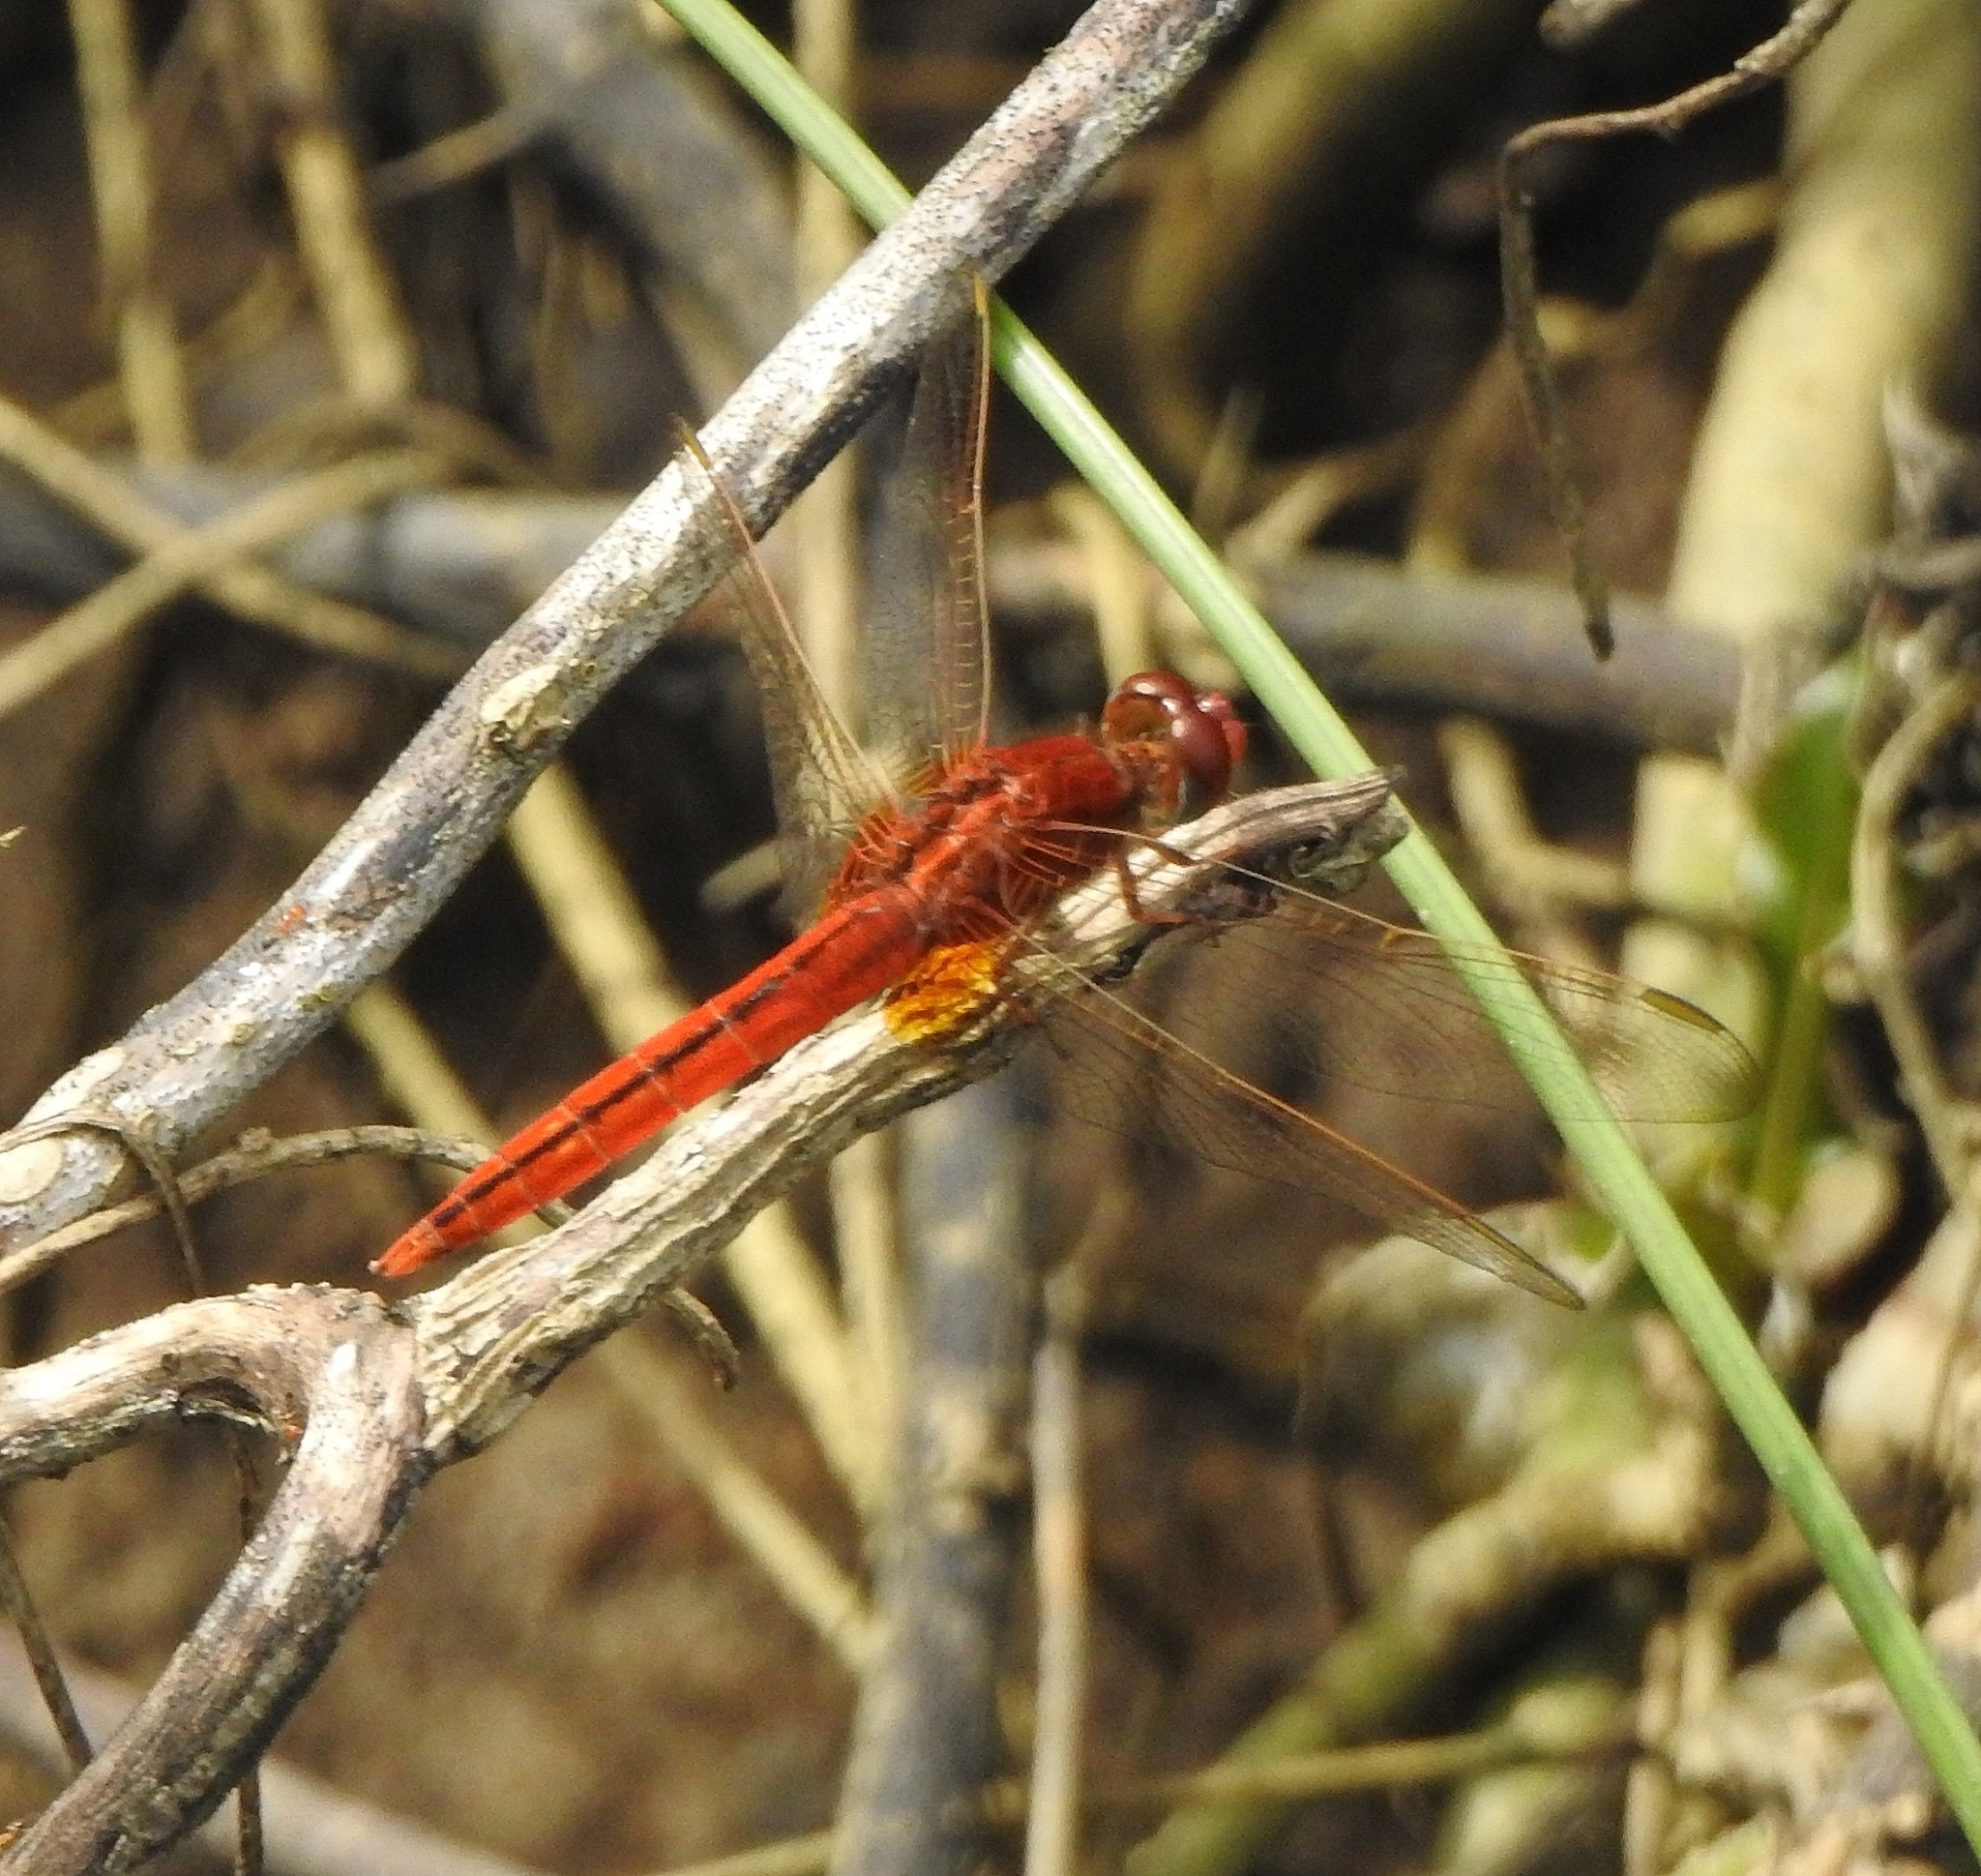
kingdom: Animalia
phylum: Arthropoda
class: Insecta
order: Odonata
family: Libellulidae
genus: Crocothemis
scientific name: Crocothemis servilia
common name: Scarlet skimmer
